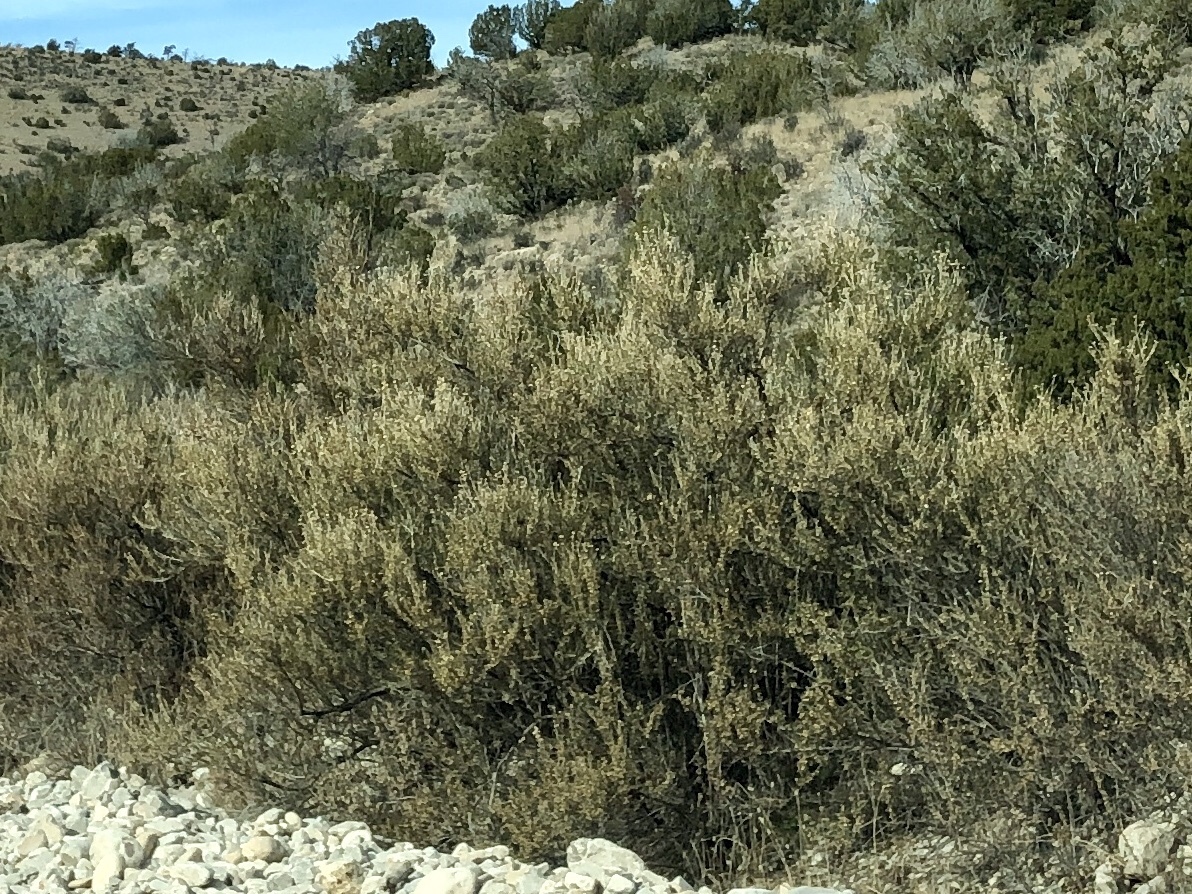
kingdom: Plantae
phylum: Tracheophyta
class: Magnoliopsida
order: Rosales
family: Rosaceae
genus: Fallugia
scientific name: Fallugia paradoxa
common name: Apache-plume
